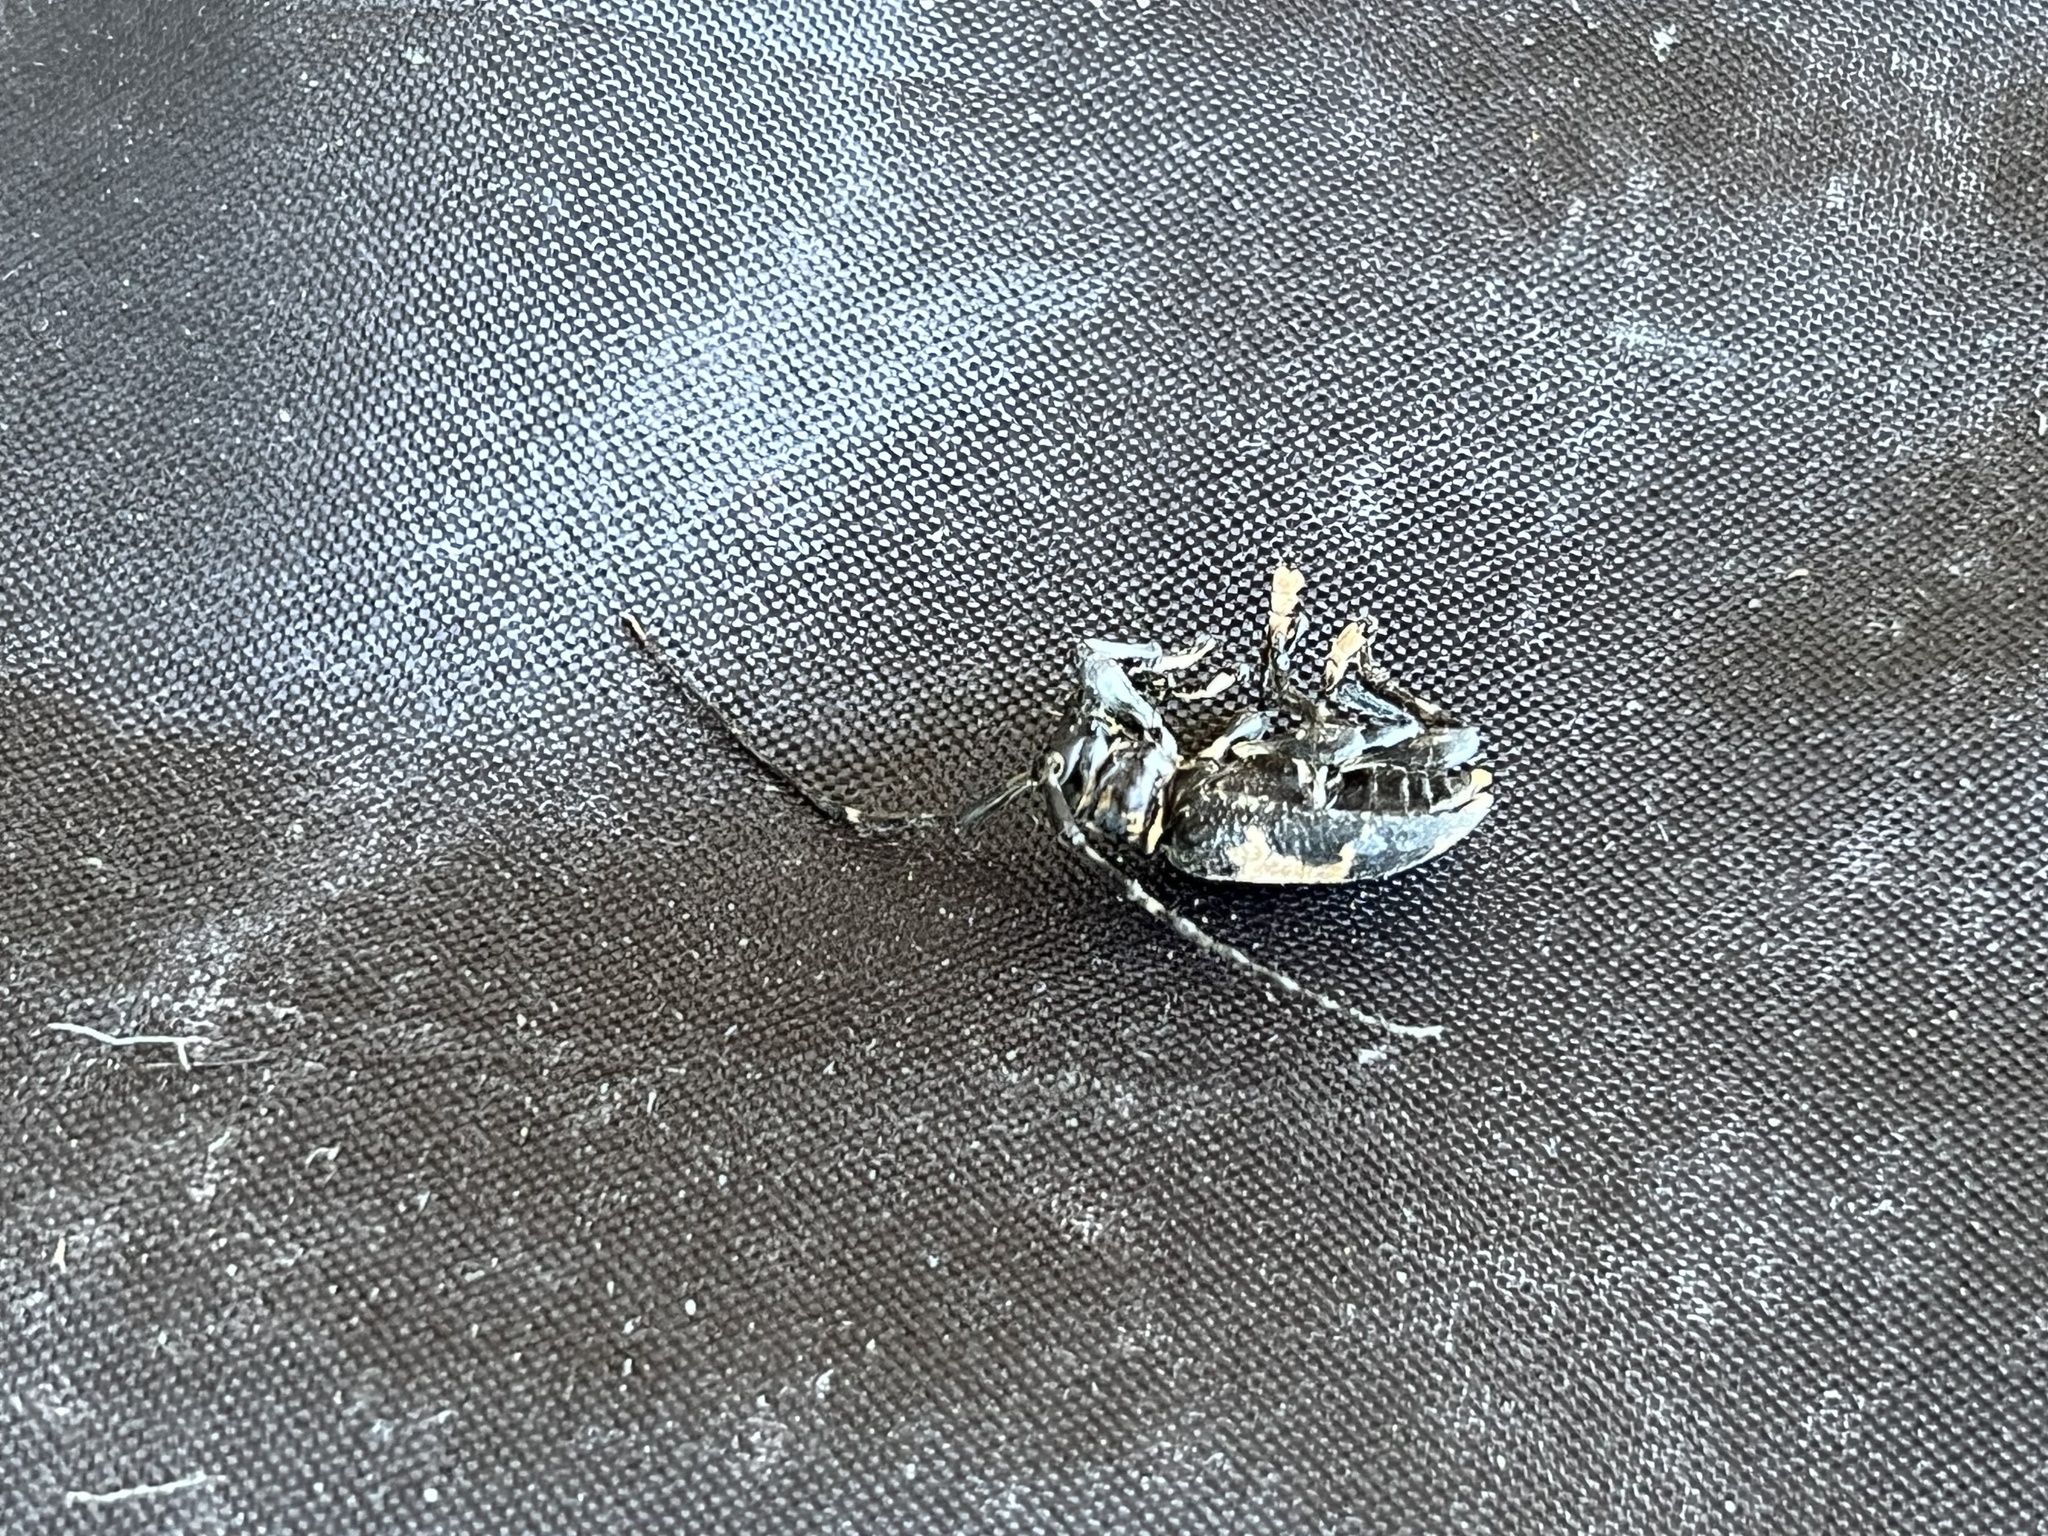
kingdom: Animalia
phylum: Arthropoda
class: Insecta
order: Coleoptera
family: Cerambycidae
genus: Coenopoeus
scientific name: Coenopoeus palmeri
